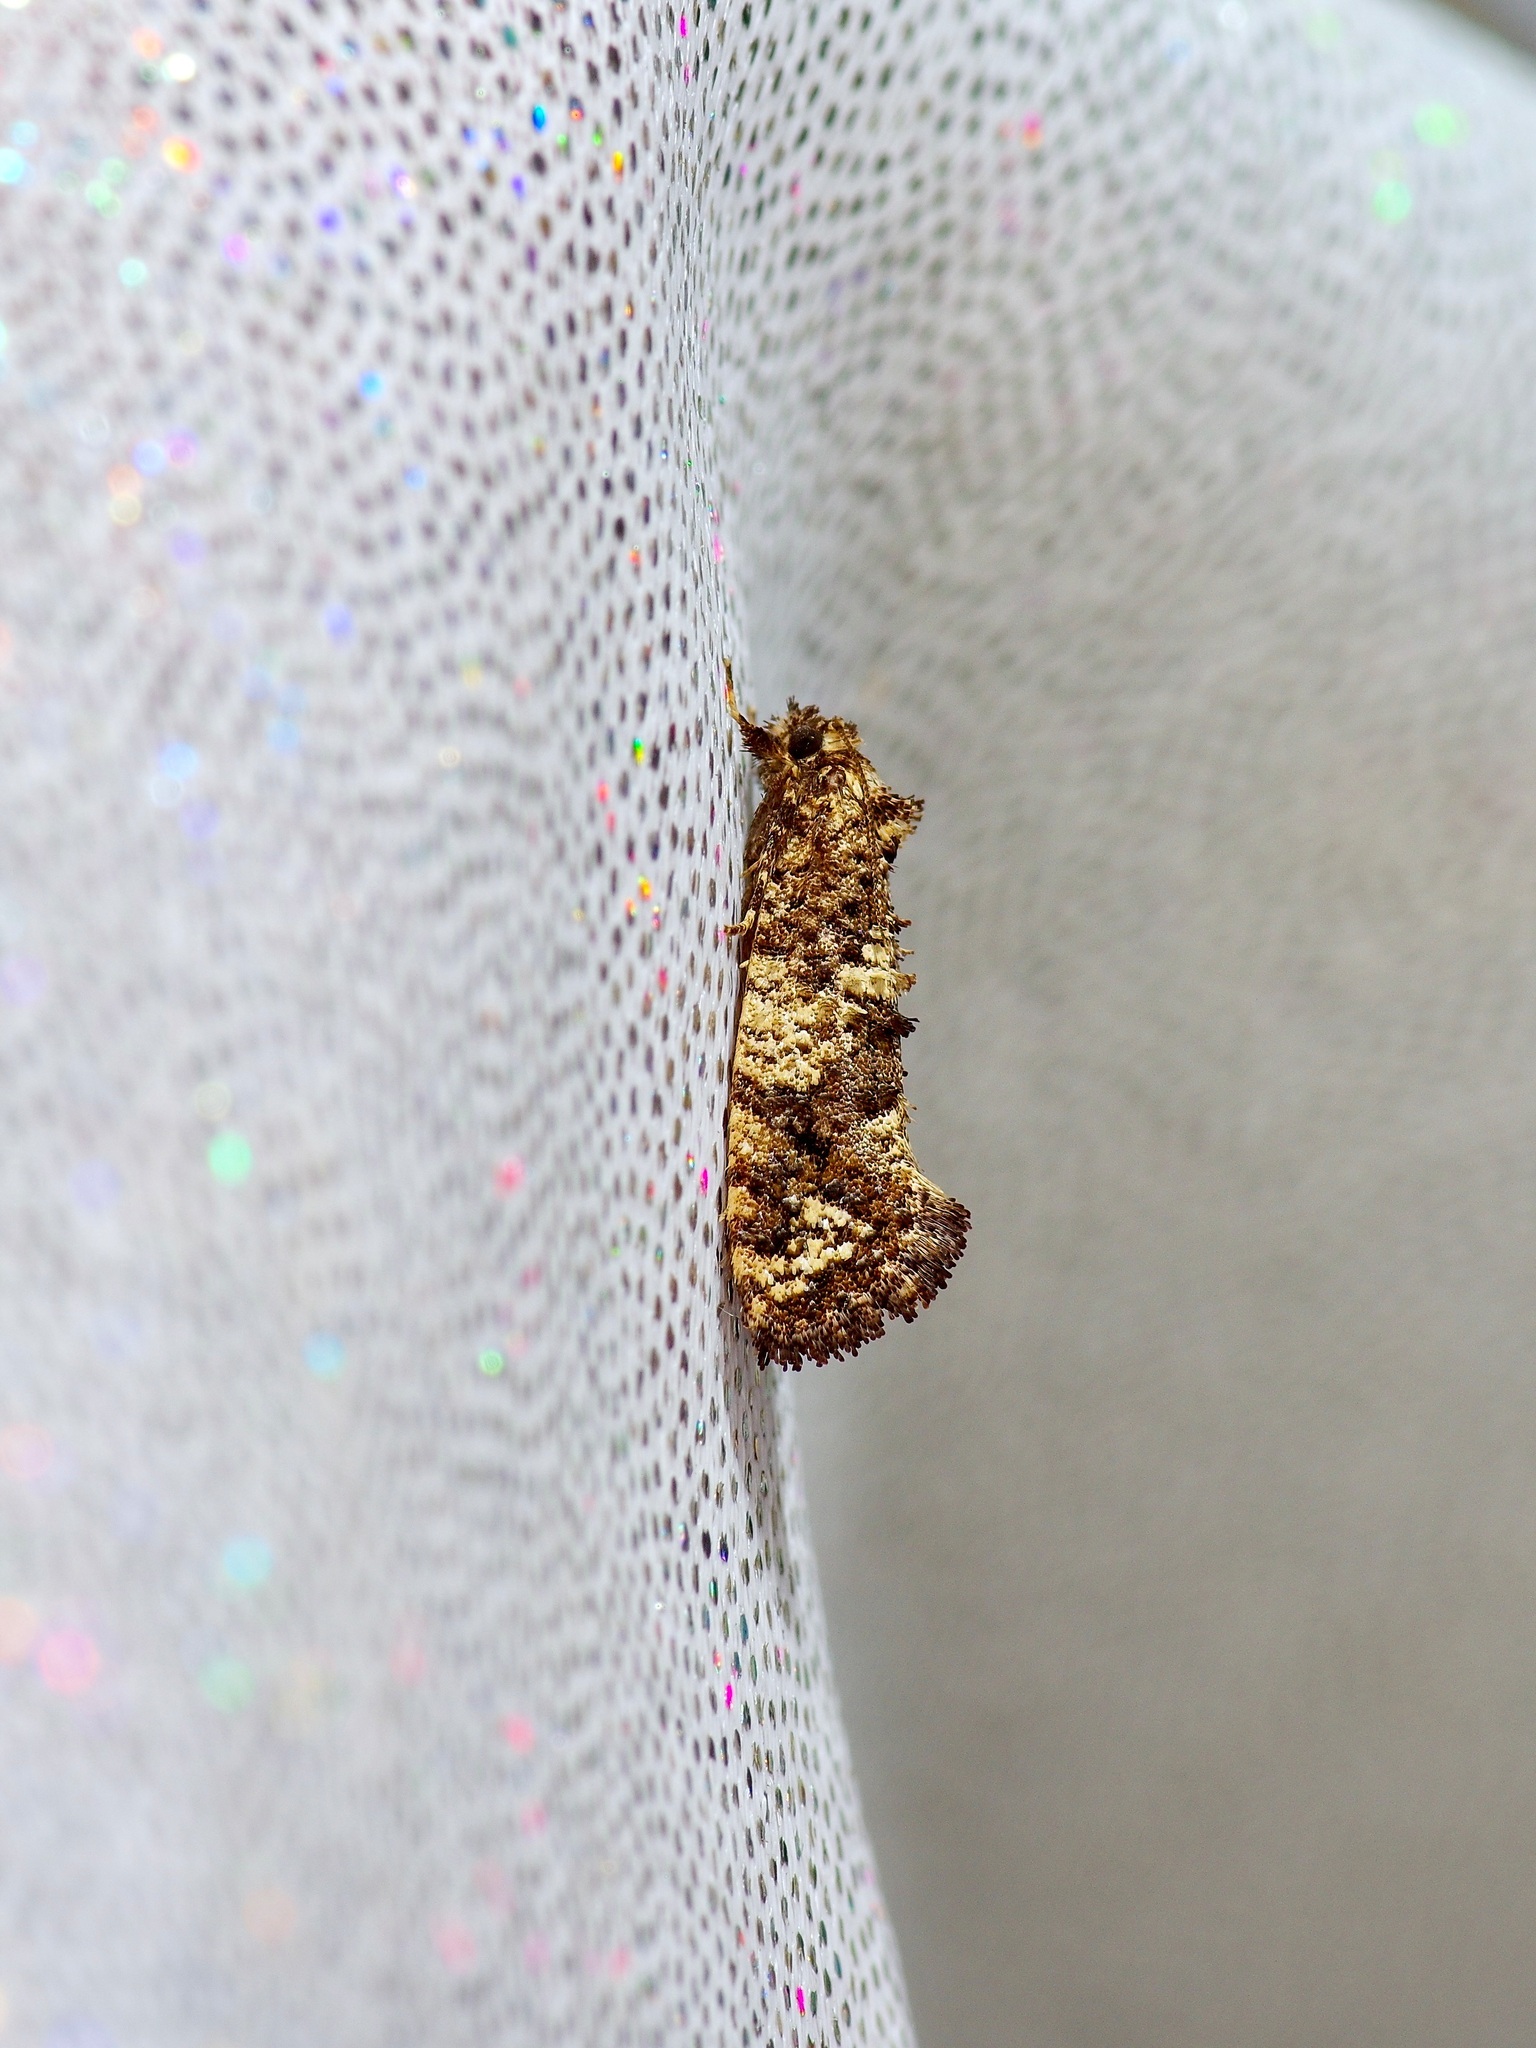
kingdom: Animalia
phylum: Arthropoda
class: Insecta
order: Lepidoptera
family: Tineidae
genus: Acrolophus
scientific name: Acrolophus cressoni
